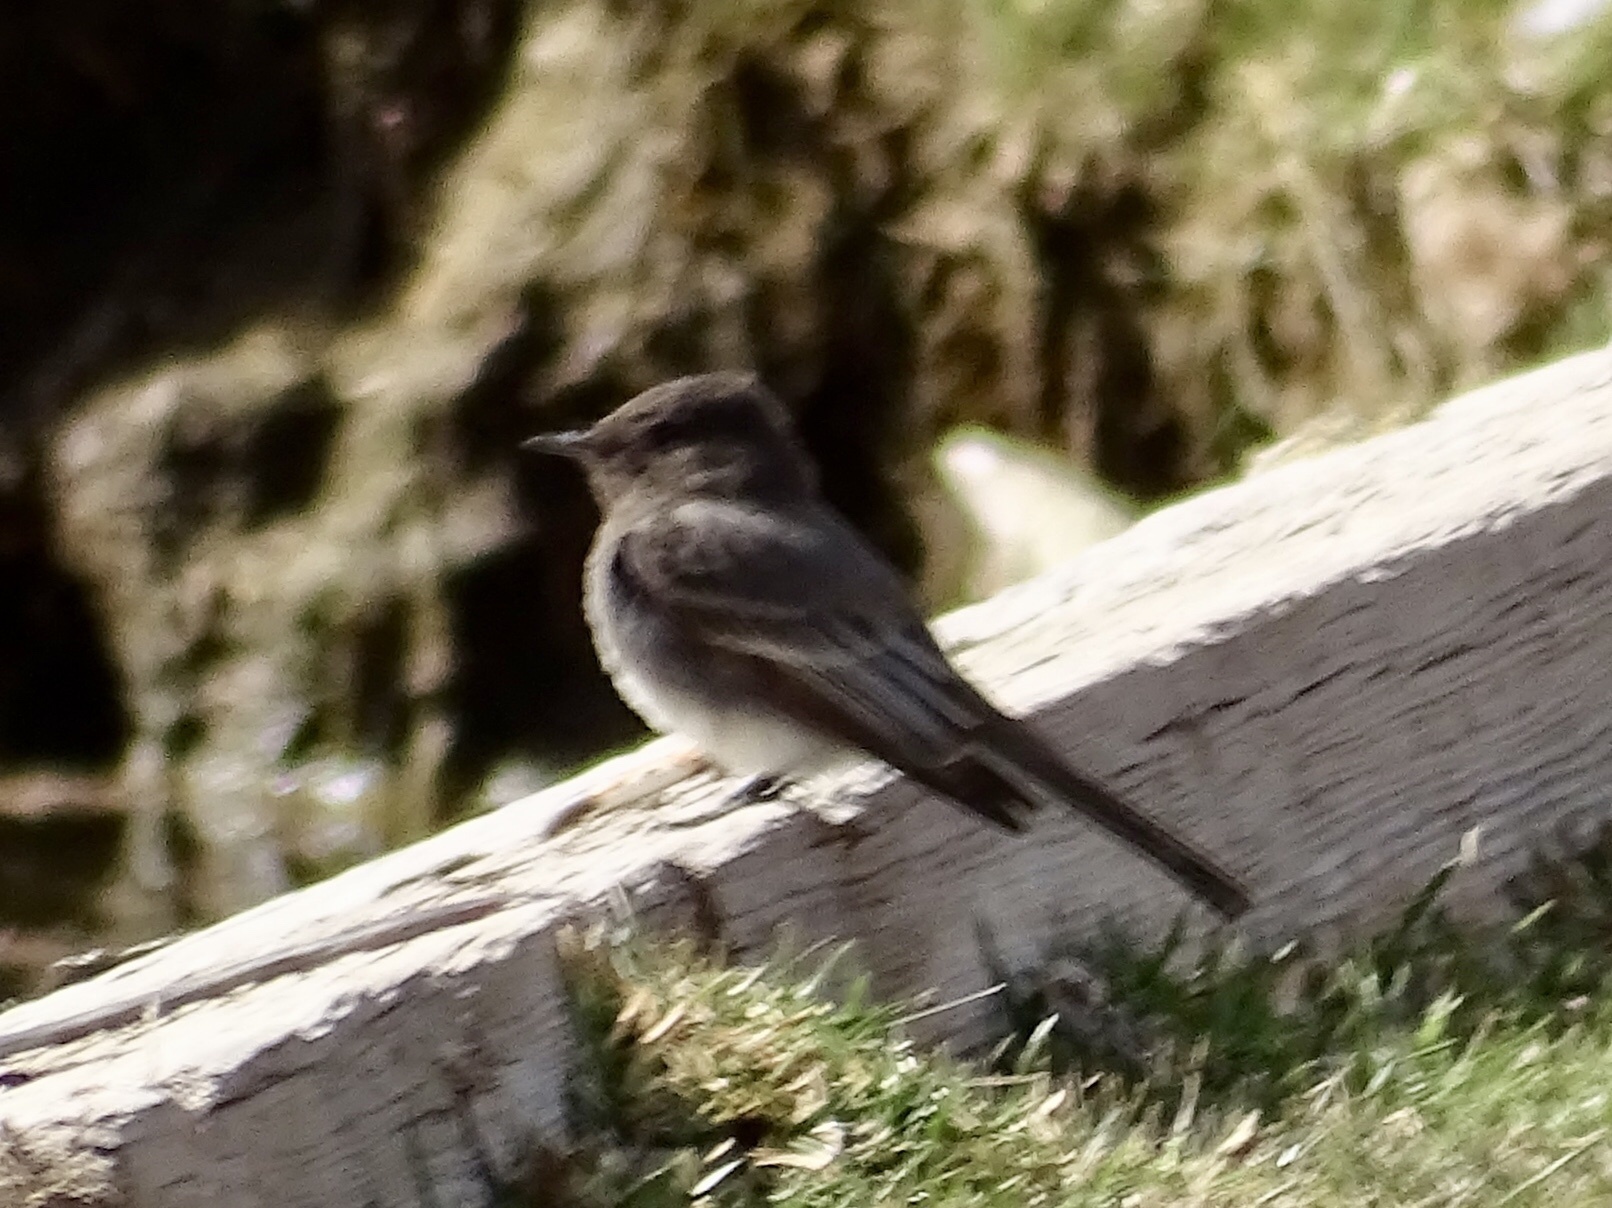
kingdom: Animalia
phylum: Chordata
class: Aves
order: Passeriformes
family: Tyrannidae
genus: Sayornis
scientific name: Sayornis nigricans
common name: Black phoebe
